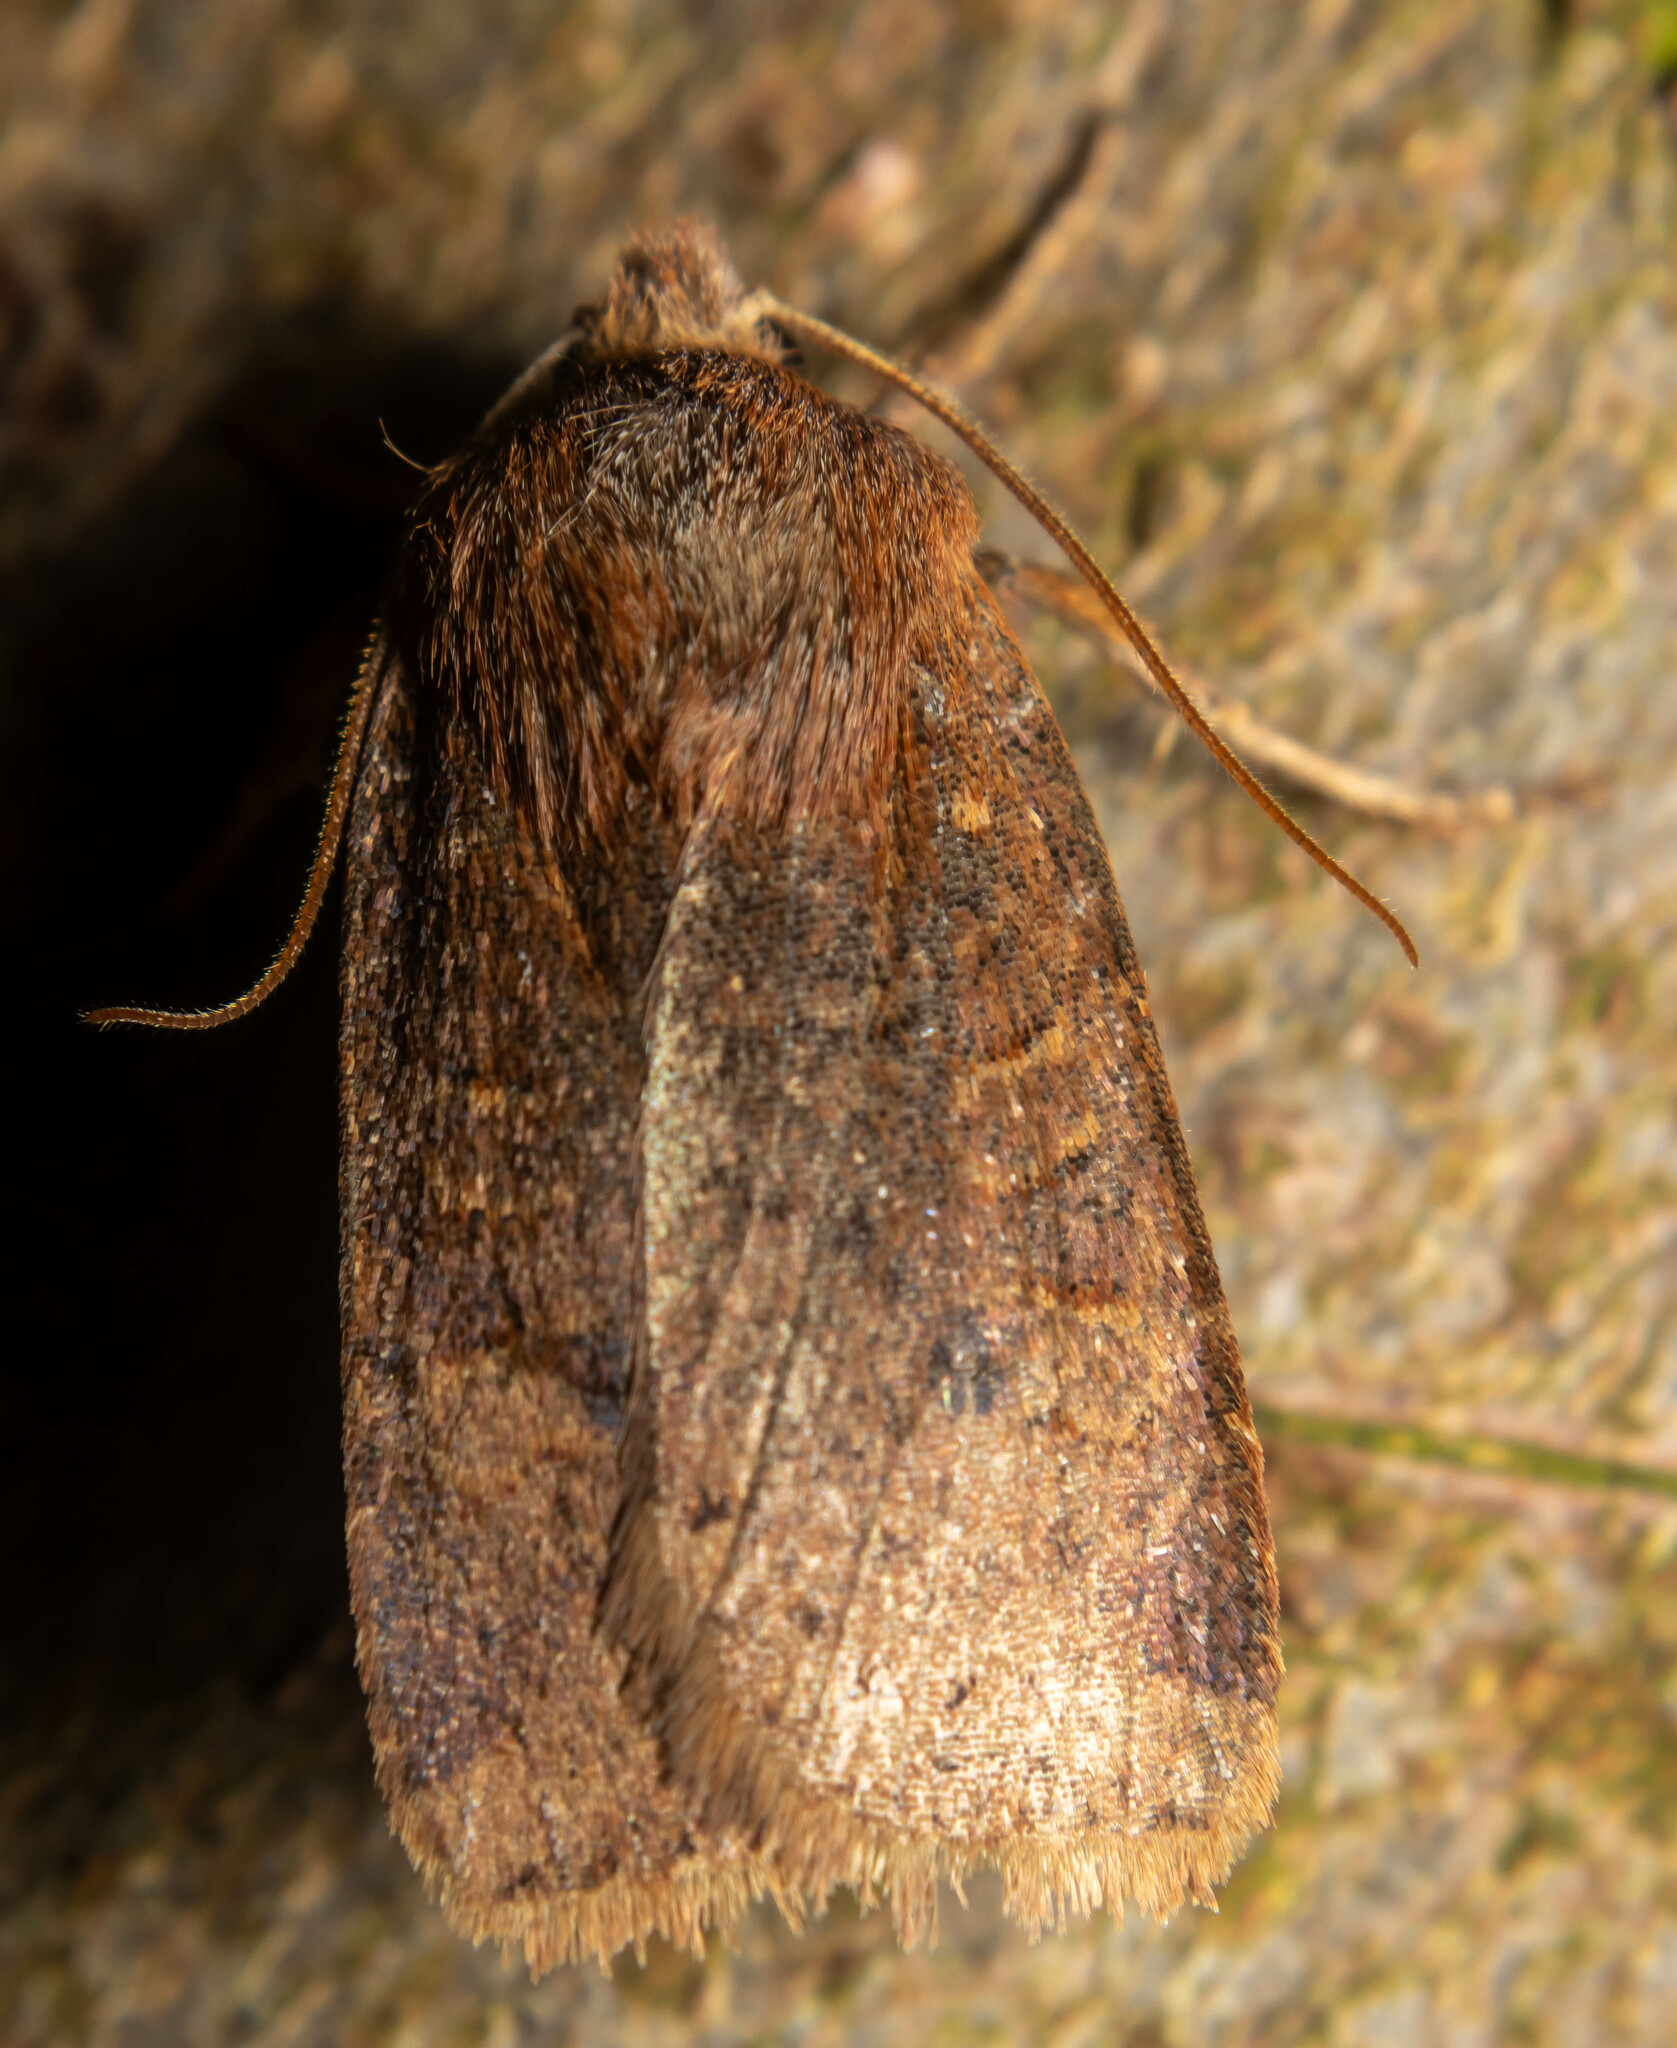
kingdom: Animalia
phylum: Arthropoda
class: Insecta
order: Lepidoptera
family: Noctuidae
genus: Conistra
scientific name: Conistra vaccinii
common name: Chestnut
